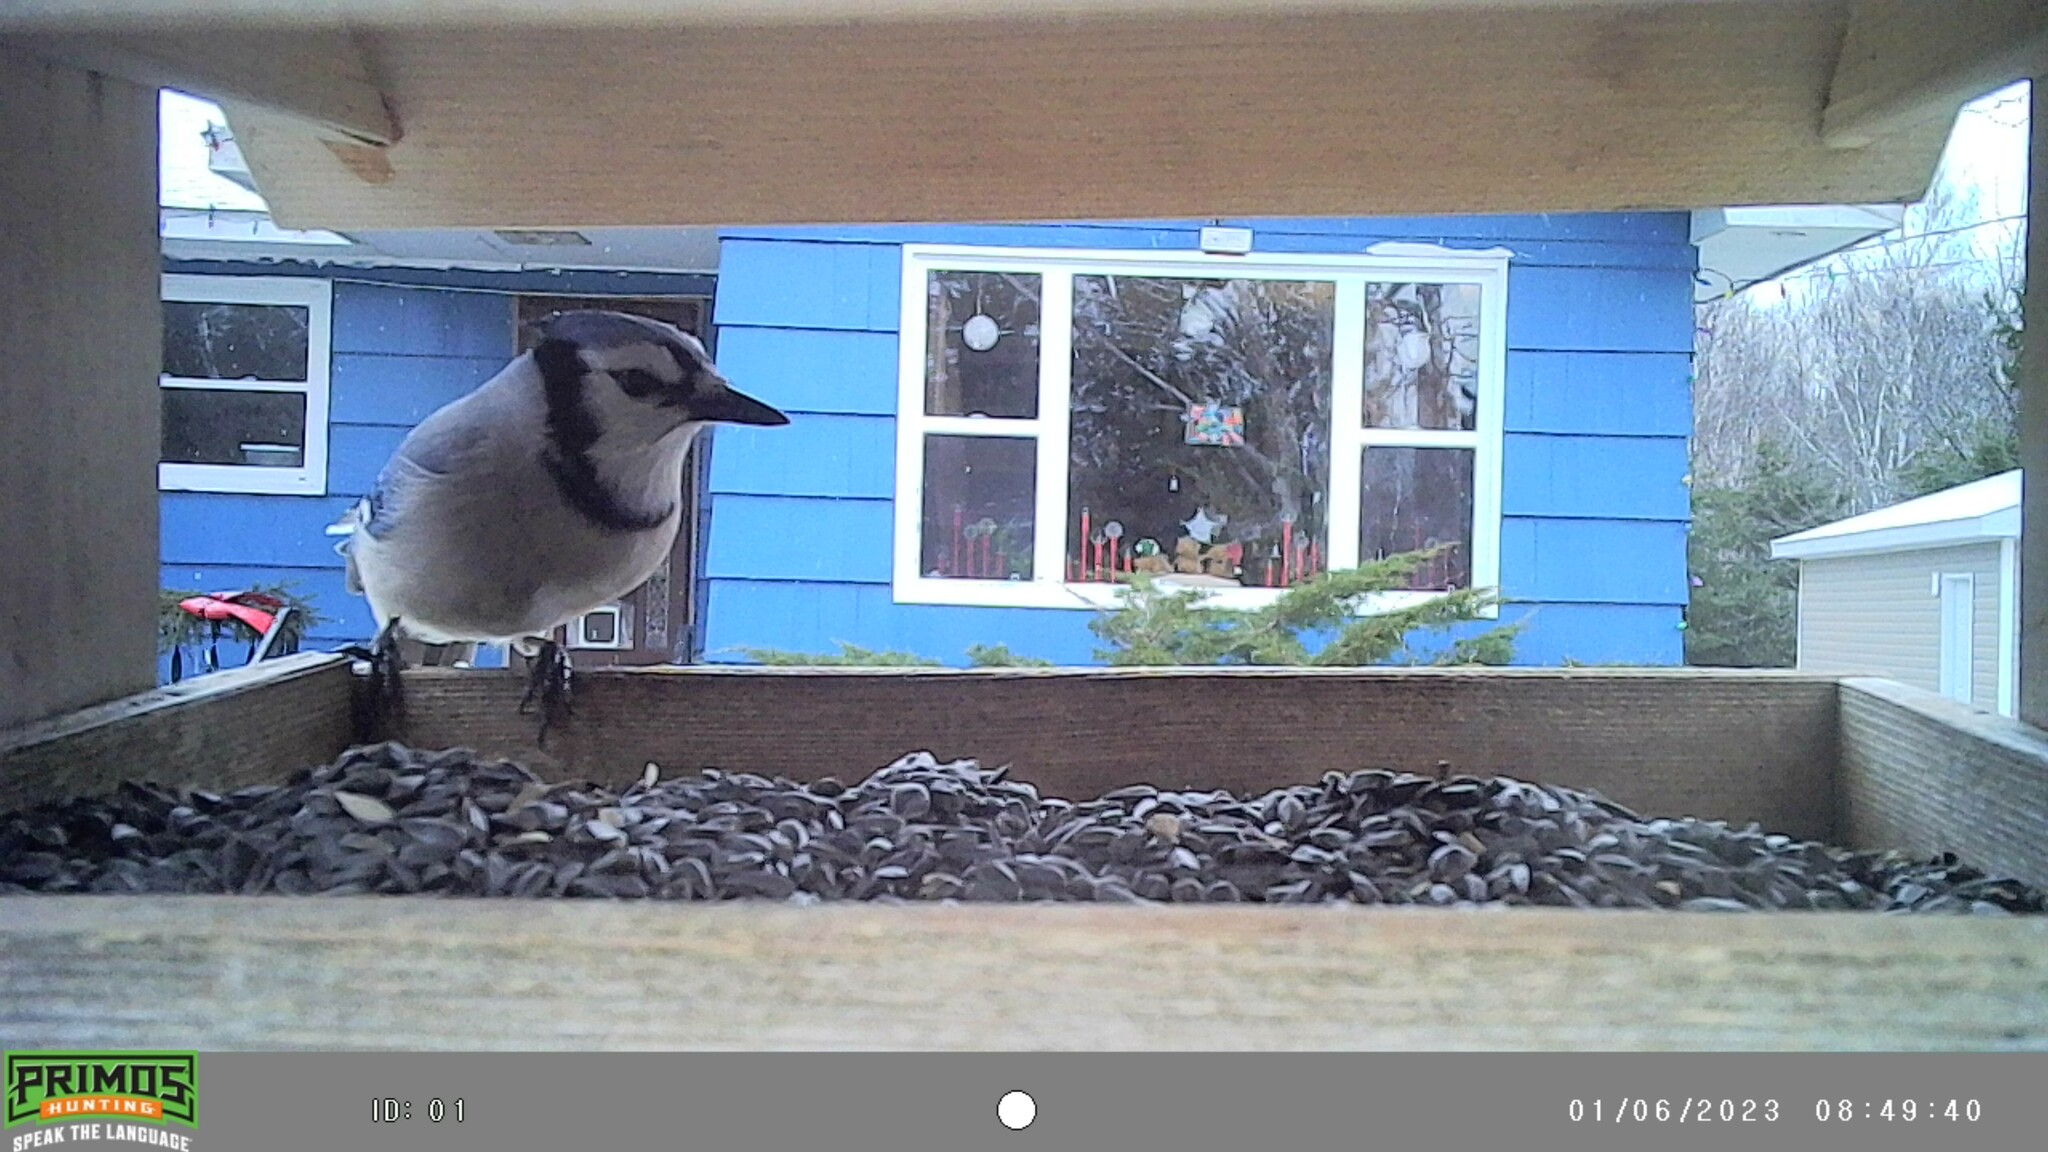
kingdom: Animalia
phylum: Chordata
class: Aves
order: Passeriformes
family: Corvidae
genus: Cyanocitta
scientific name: Cyanocitta cristata
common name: Blue jay
